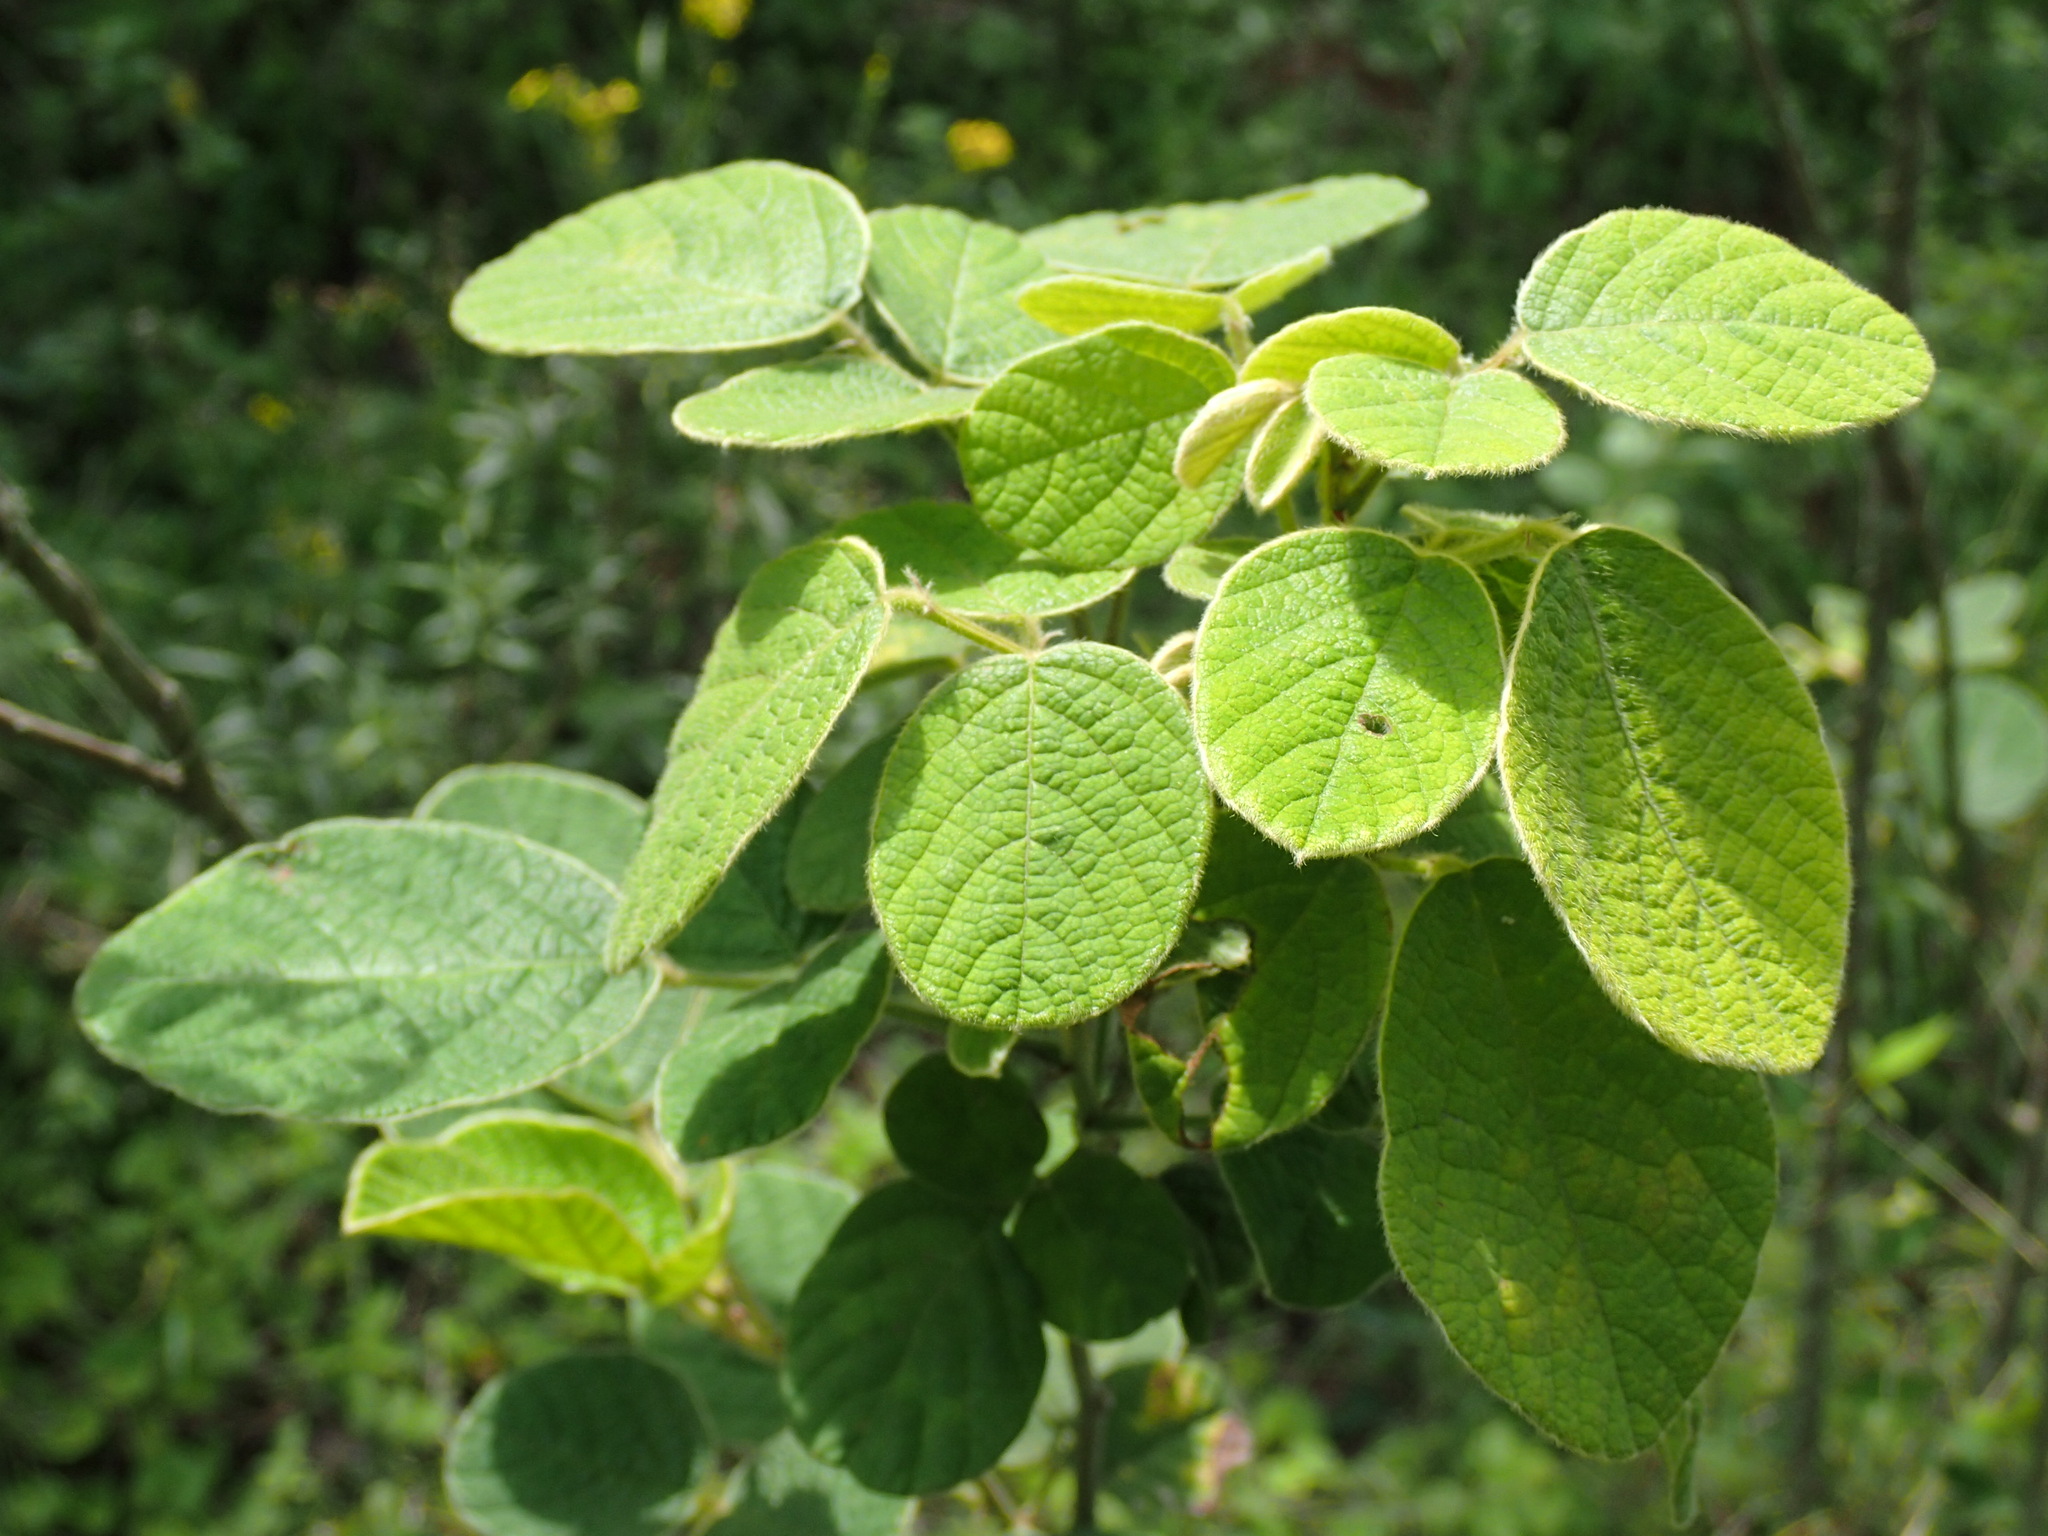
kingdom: Plantae
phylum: Tracheophyta
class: Magnoliopsida
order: Fabales
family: Fabaceae
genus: Pseudarthria
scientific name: Pseudarthria hookeri
